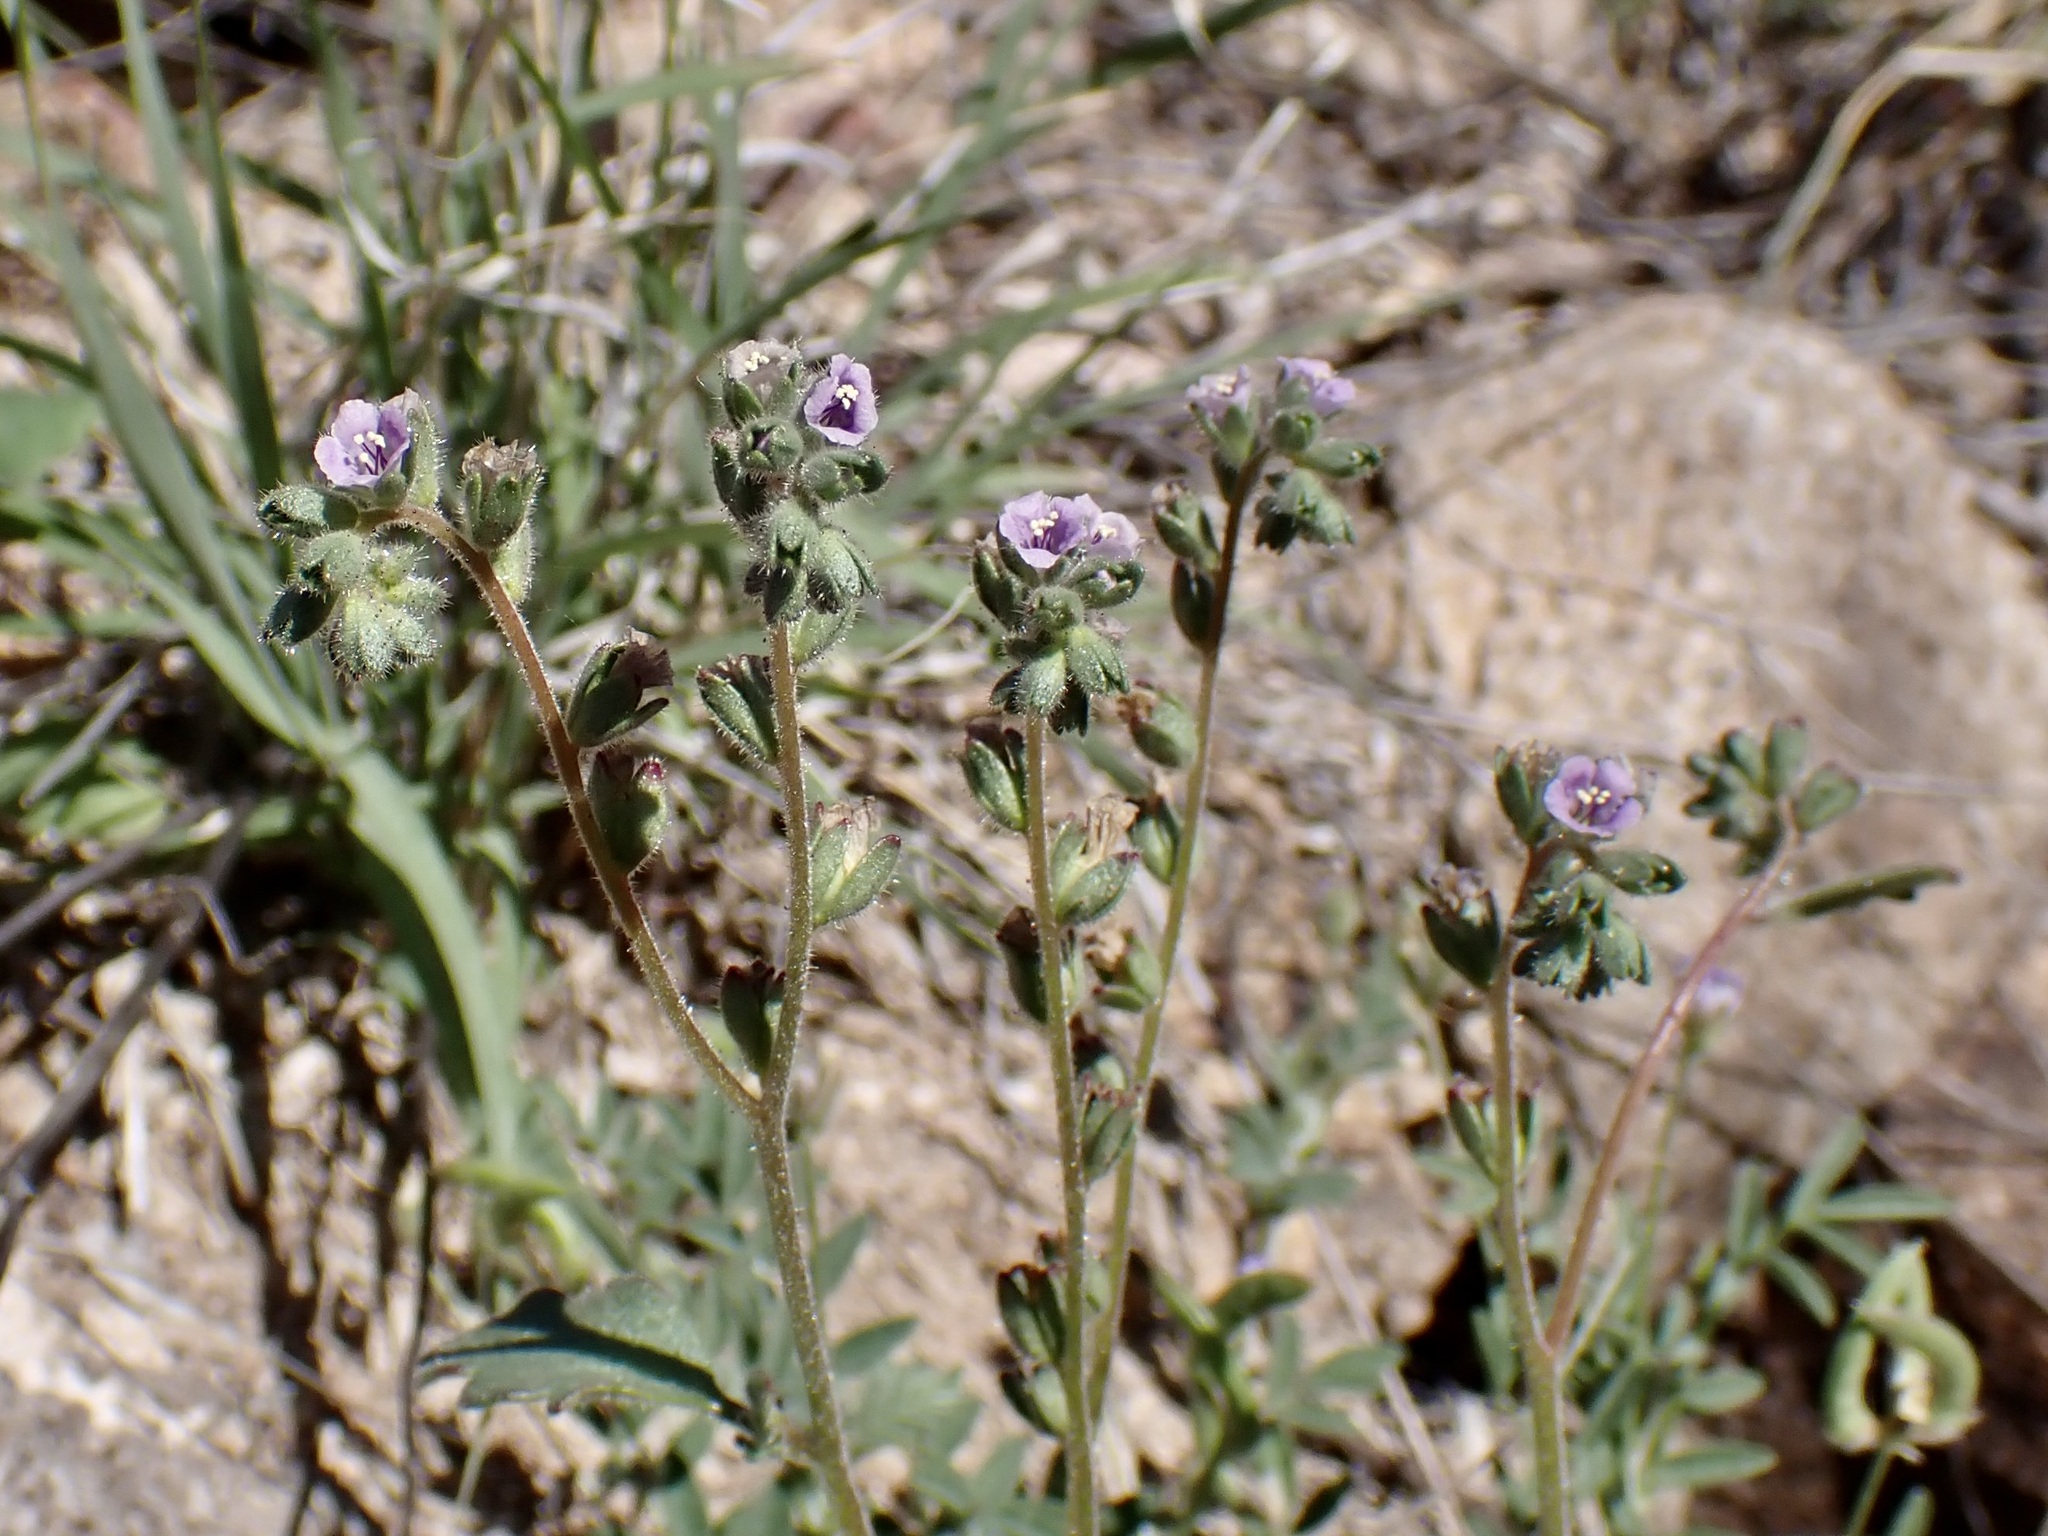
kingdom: Plantae
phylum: Tracheophyta
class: Magnoliopsida
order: Boraginales
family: Hydrophyllaceae
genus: Phacelia
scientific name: Phacelia coerulea
